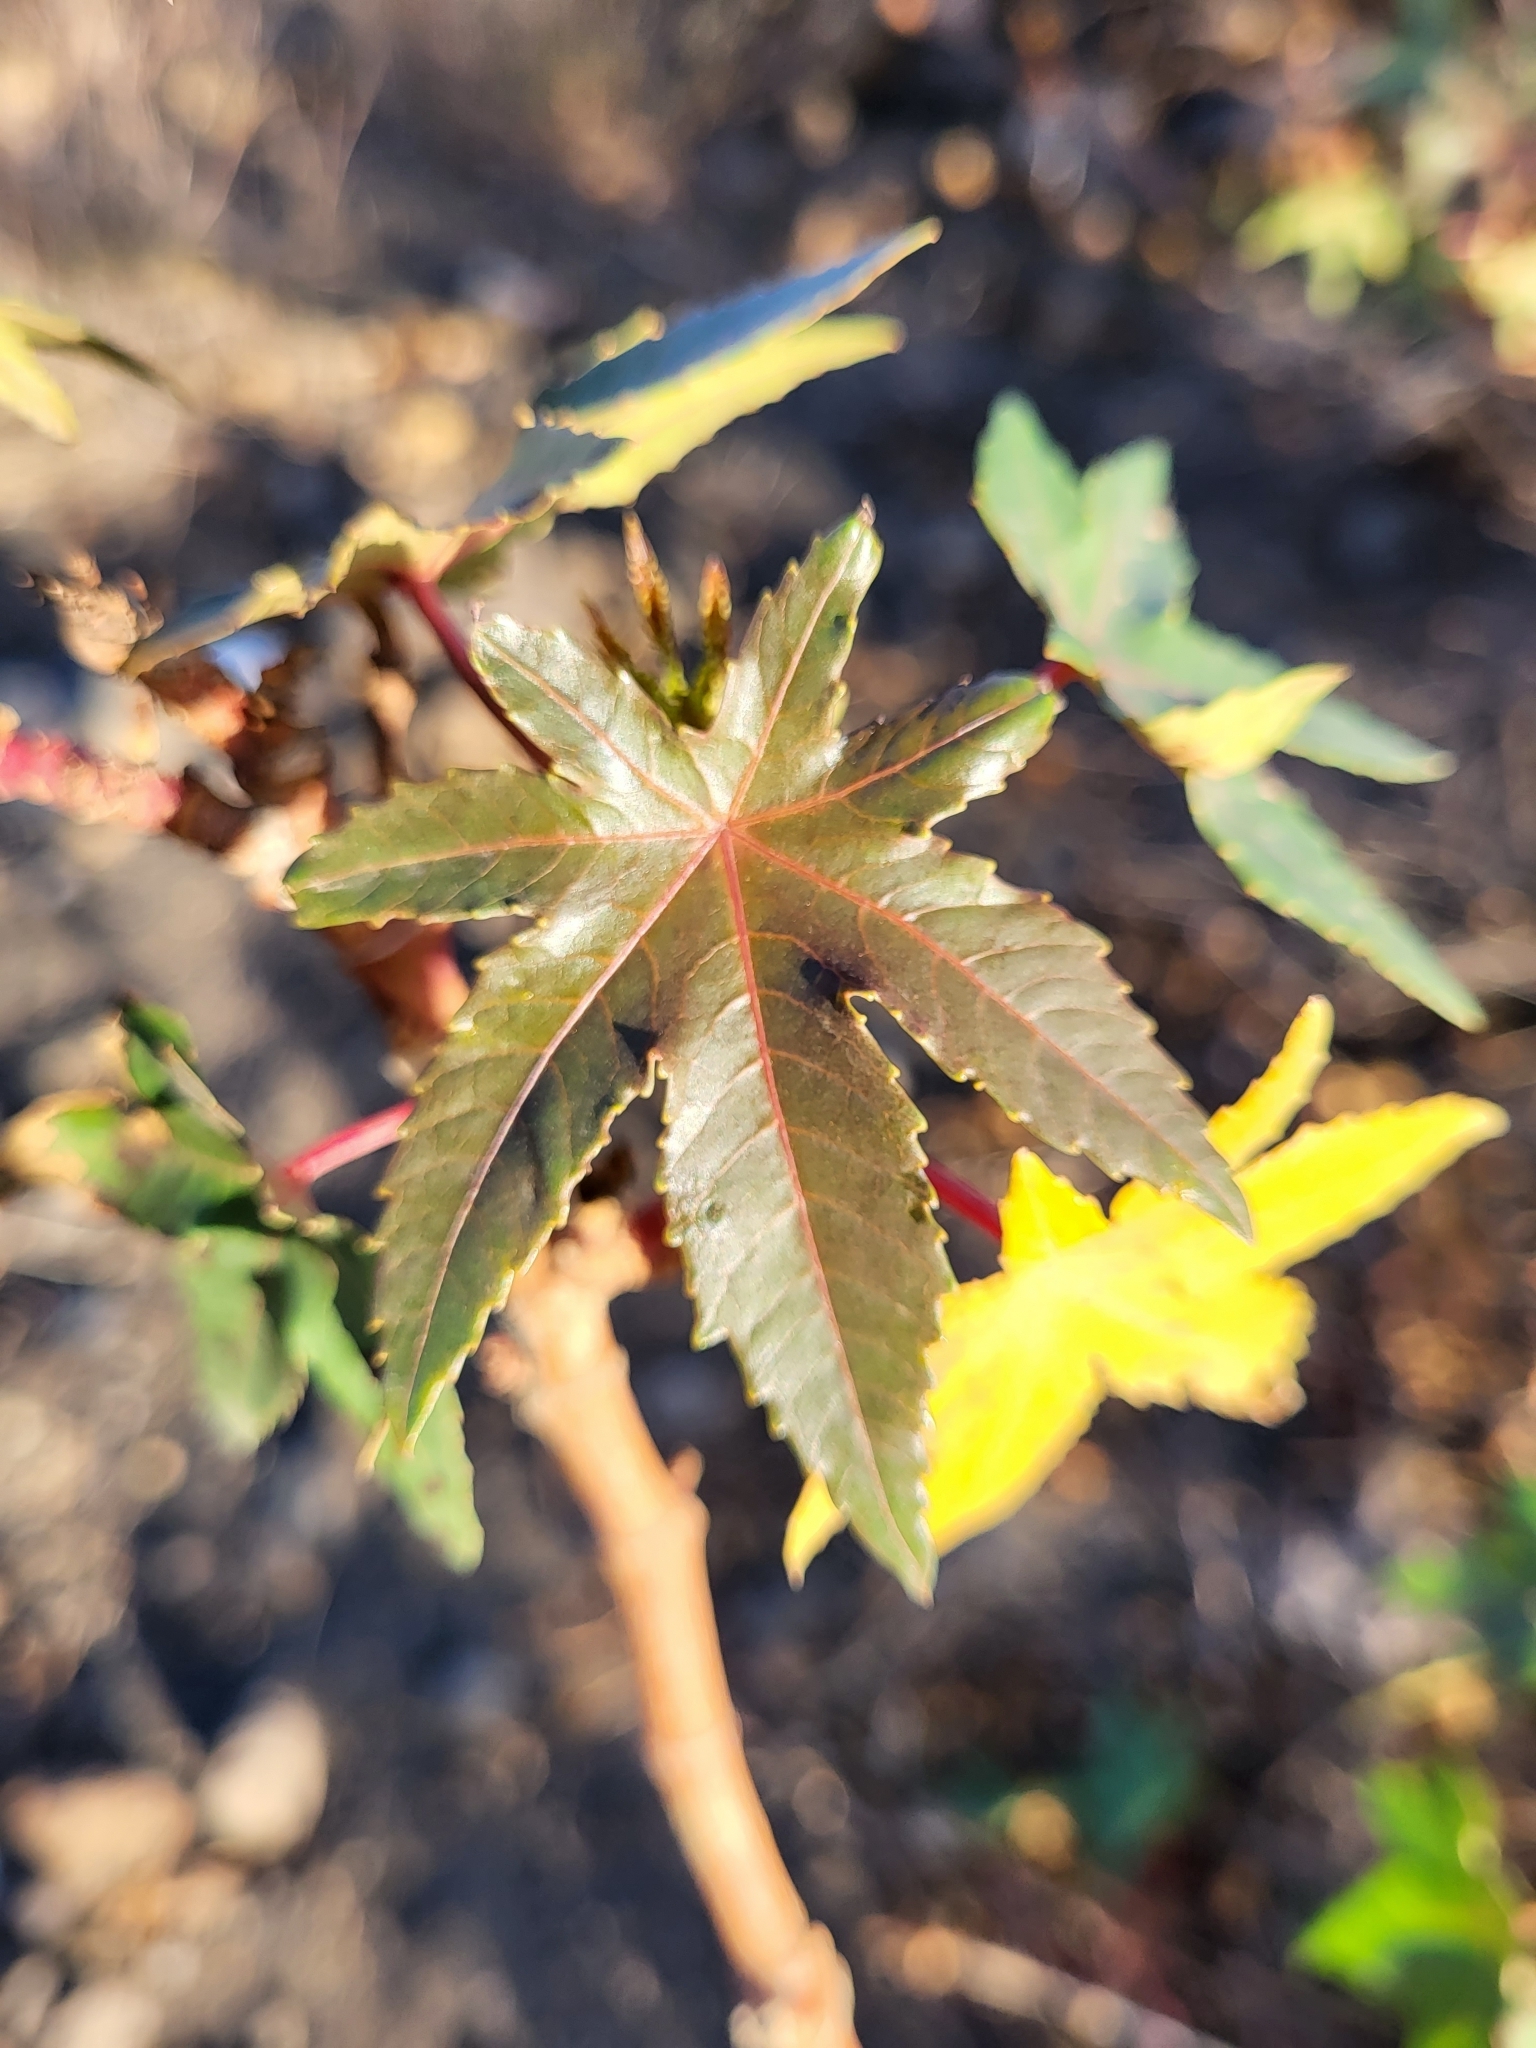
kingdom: Plantae
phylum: Tracheophyta
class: Magnoliopsida
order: Malpighiales
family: Euphorbiaceae
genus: Ricinus
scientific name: Ricinus communis
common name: Castor-oil-plant
